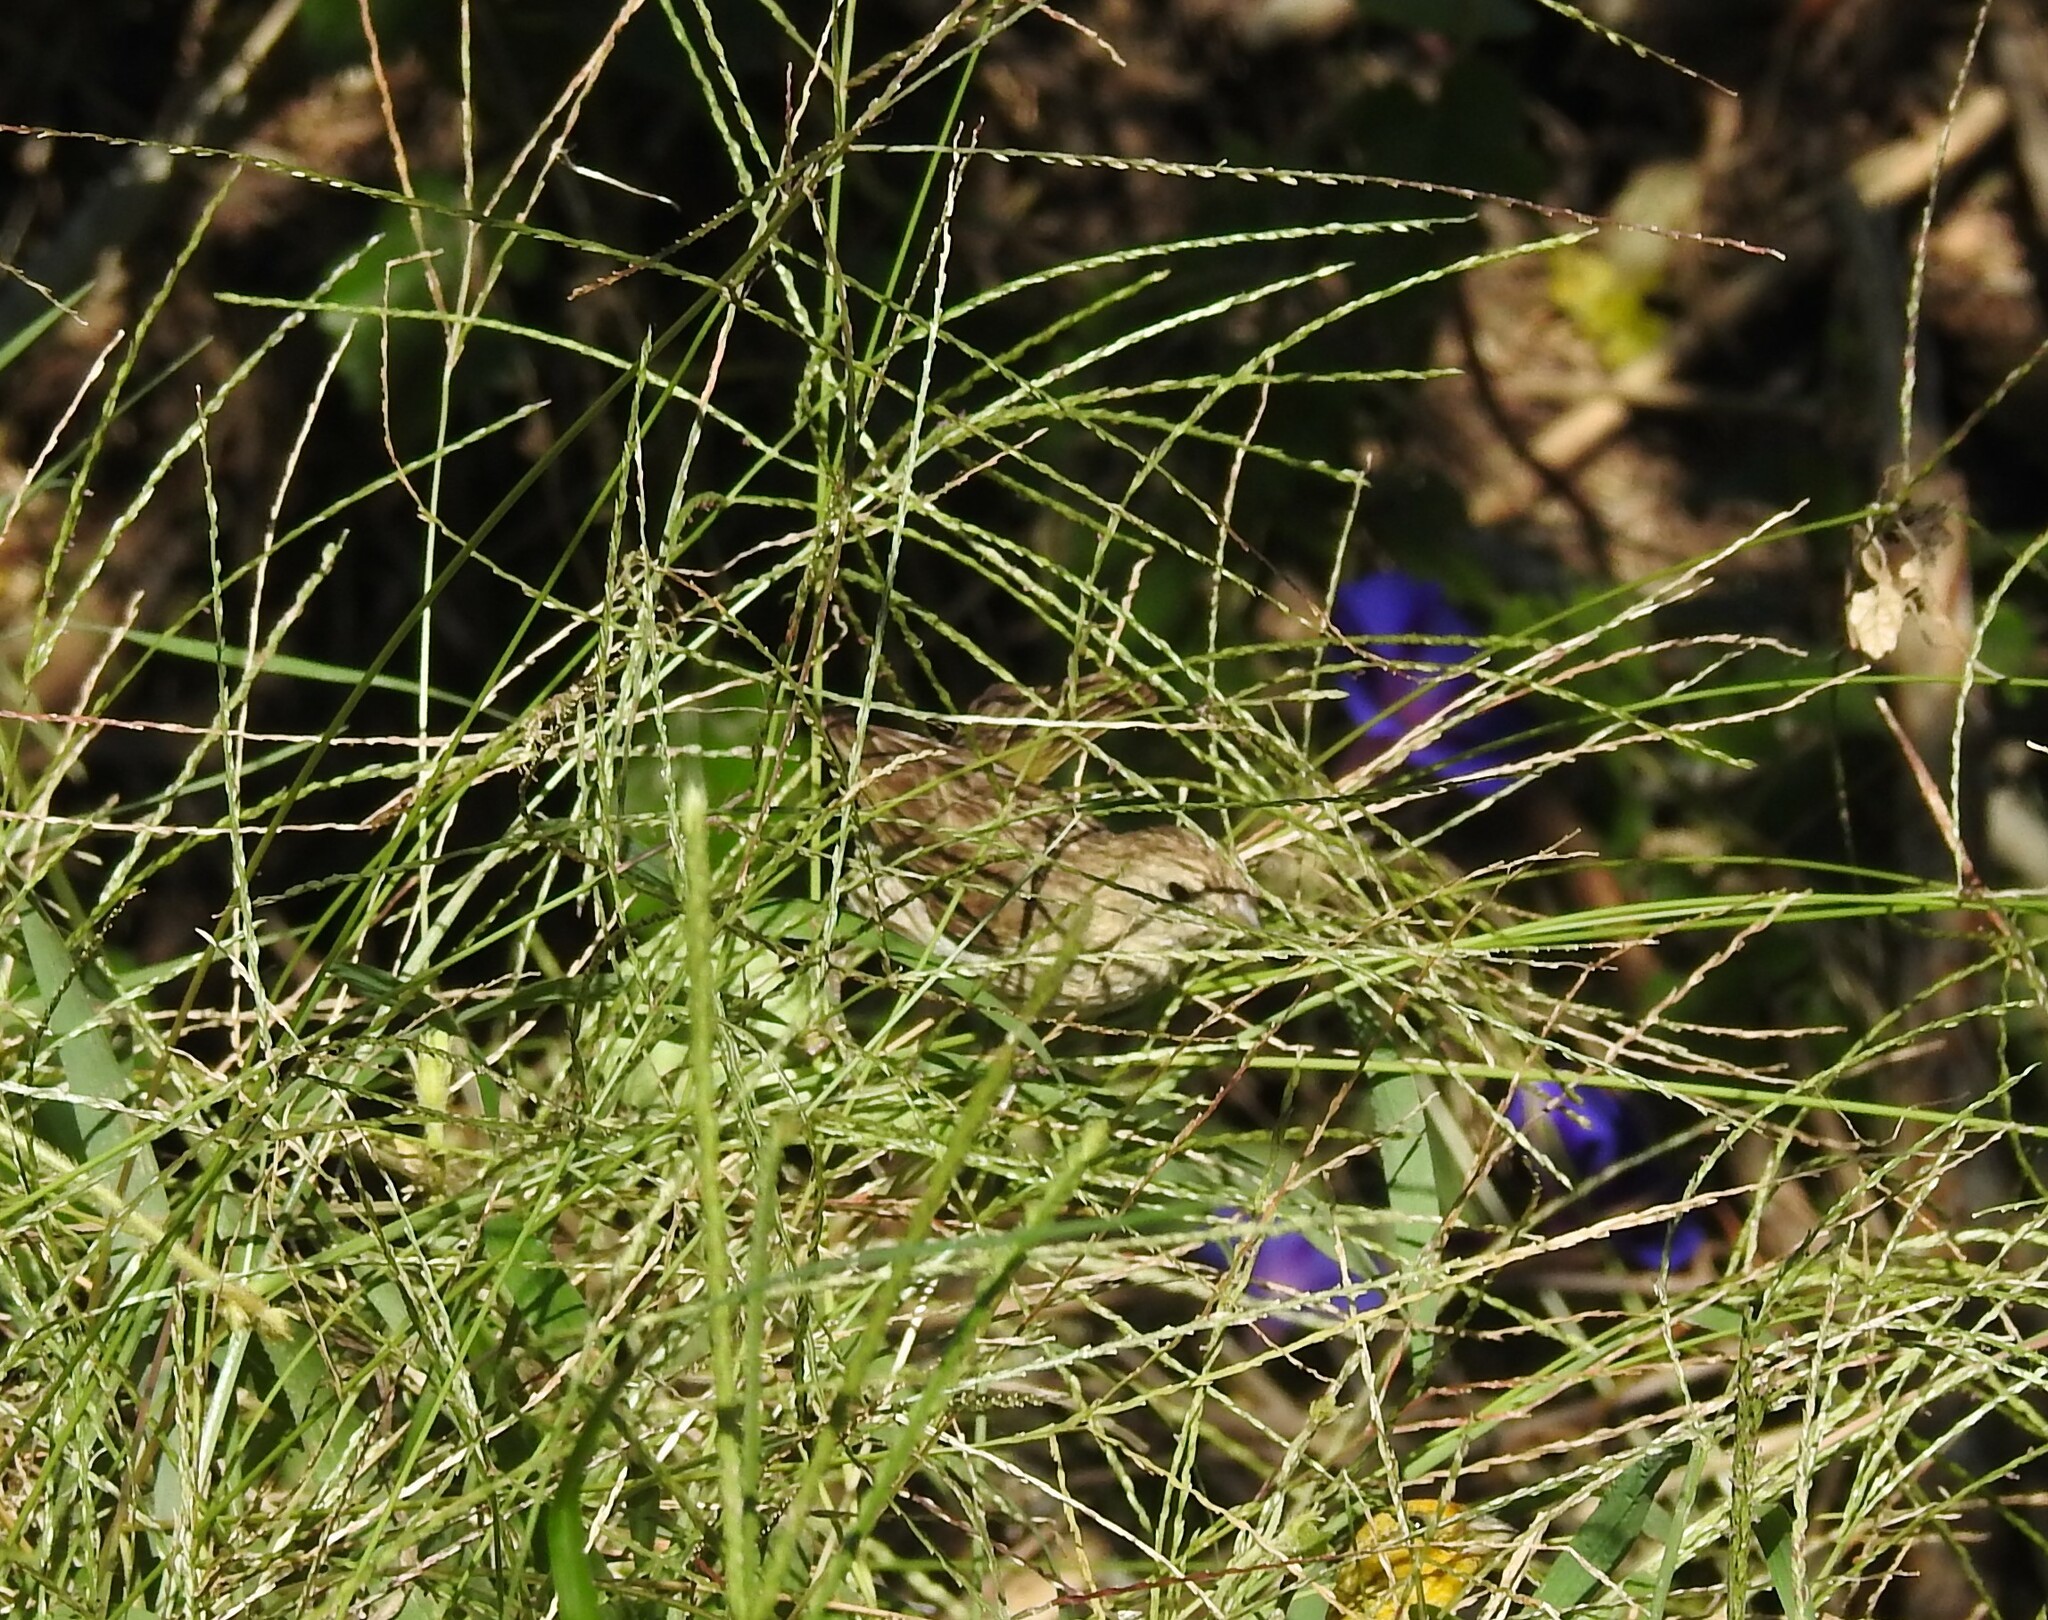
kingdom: Animalia
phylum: Chordata
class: Aves
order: Passeriformes
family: Thraupidae
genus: Sicalis
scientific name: Sicalis flaveola
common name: Saffron finch
